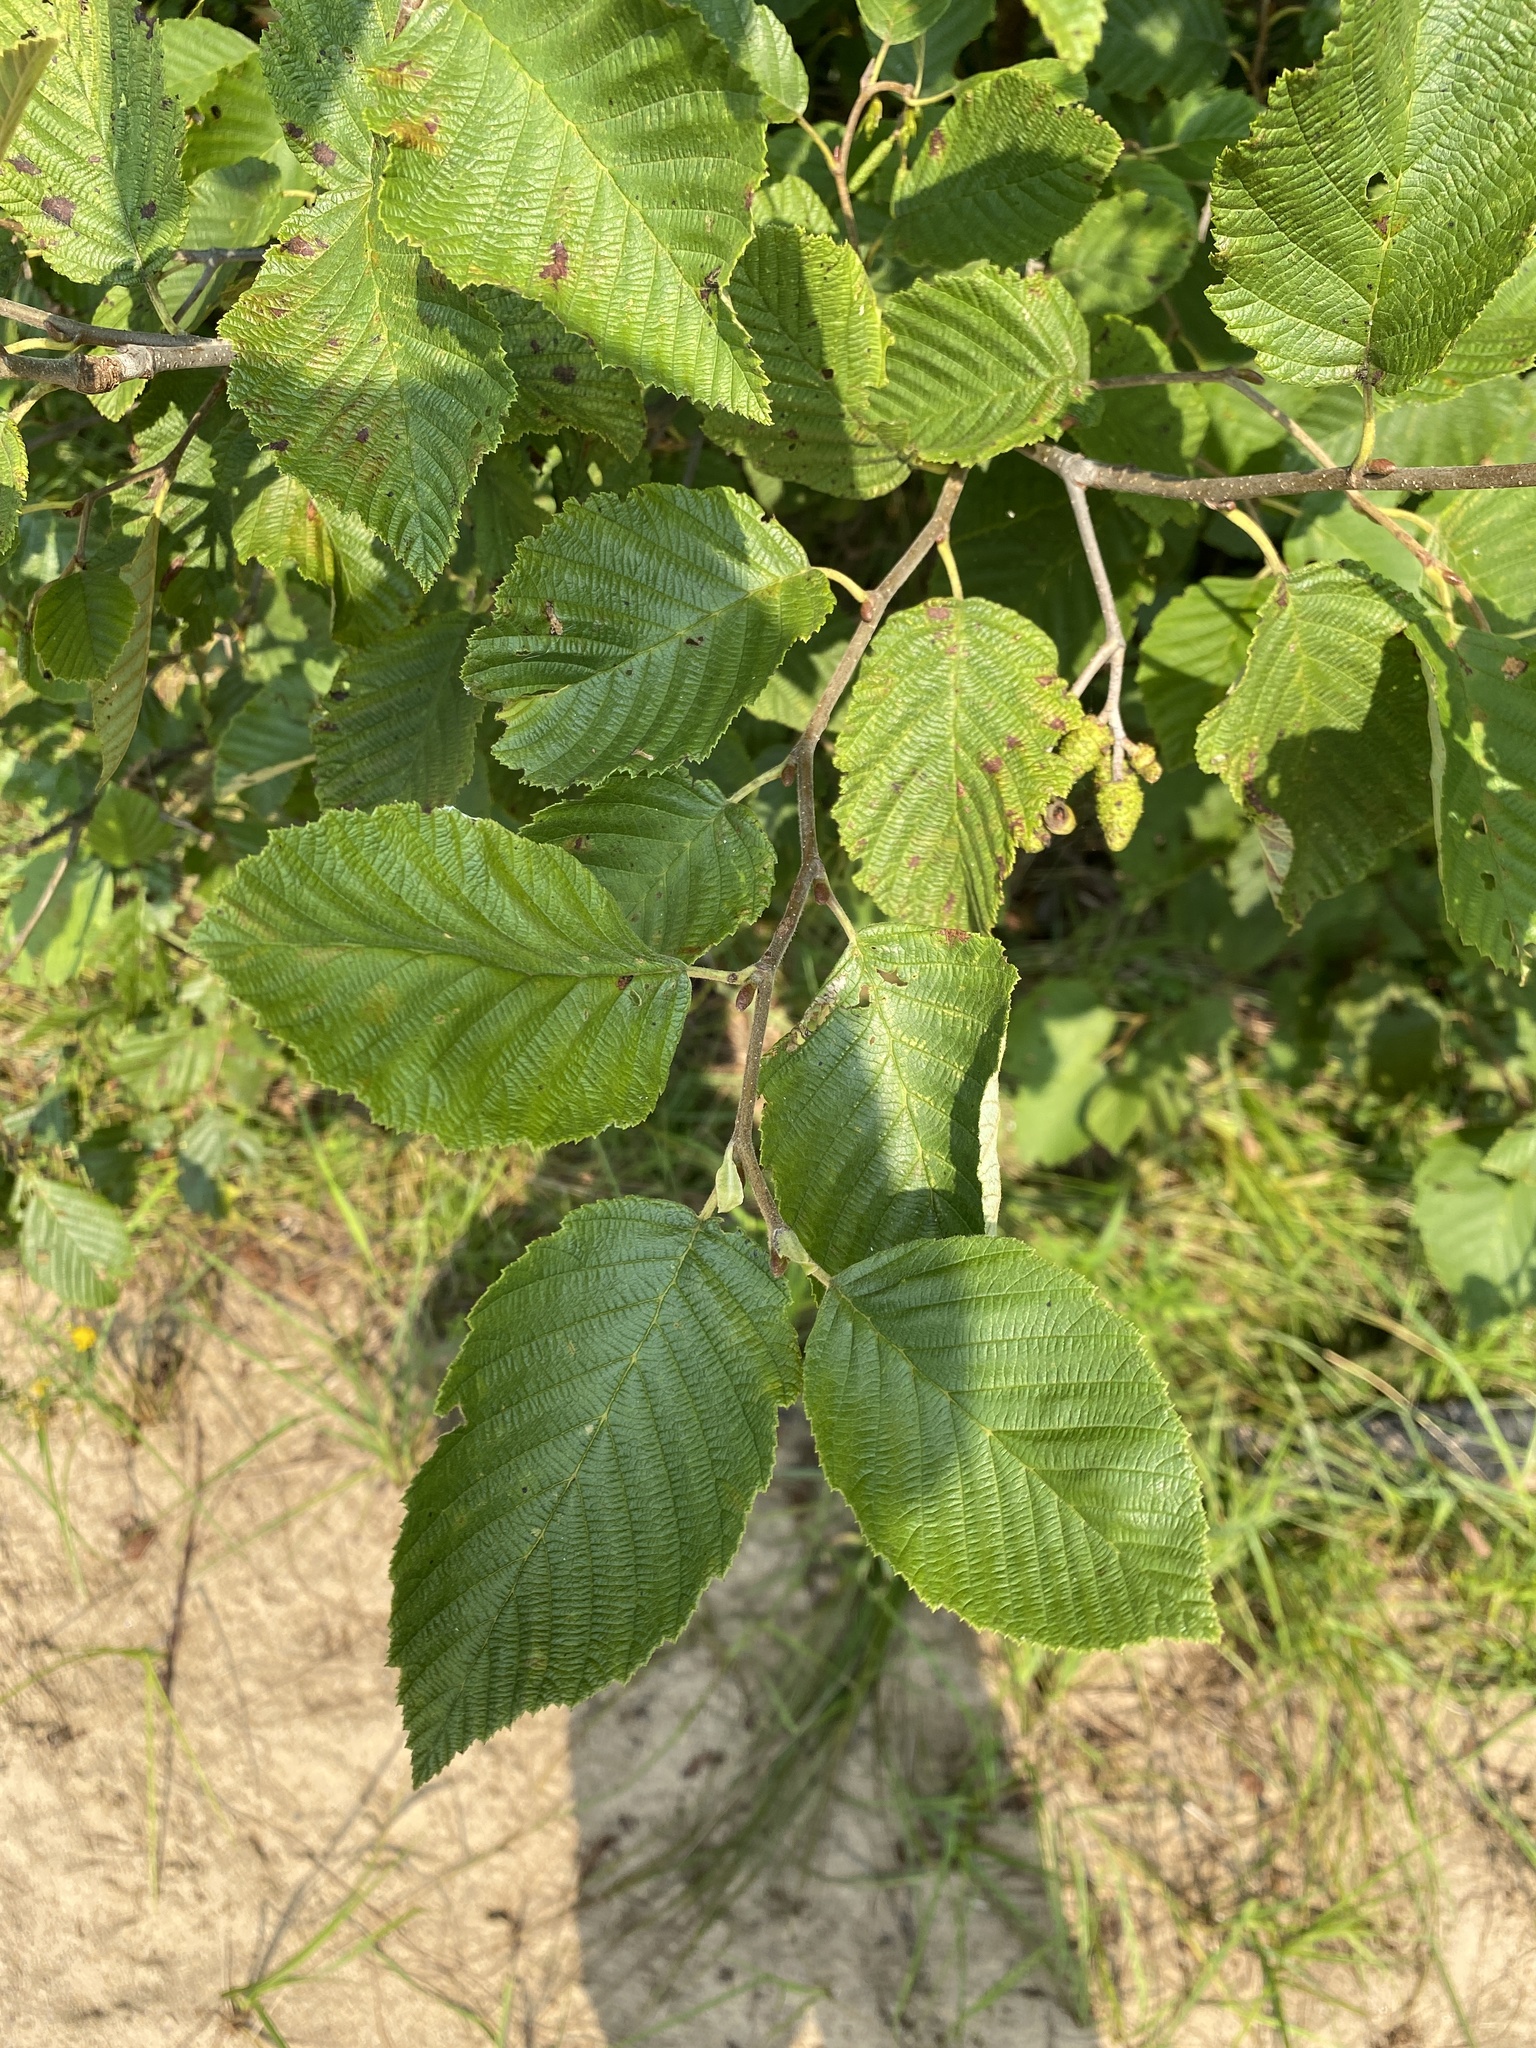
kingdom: Plantae
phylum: Tracheophyta
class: Magnoliopsida
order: Fagales
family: Betulaceae
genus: Alnus
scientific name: Alnus incana
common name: Grey alder
